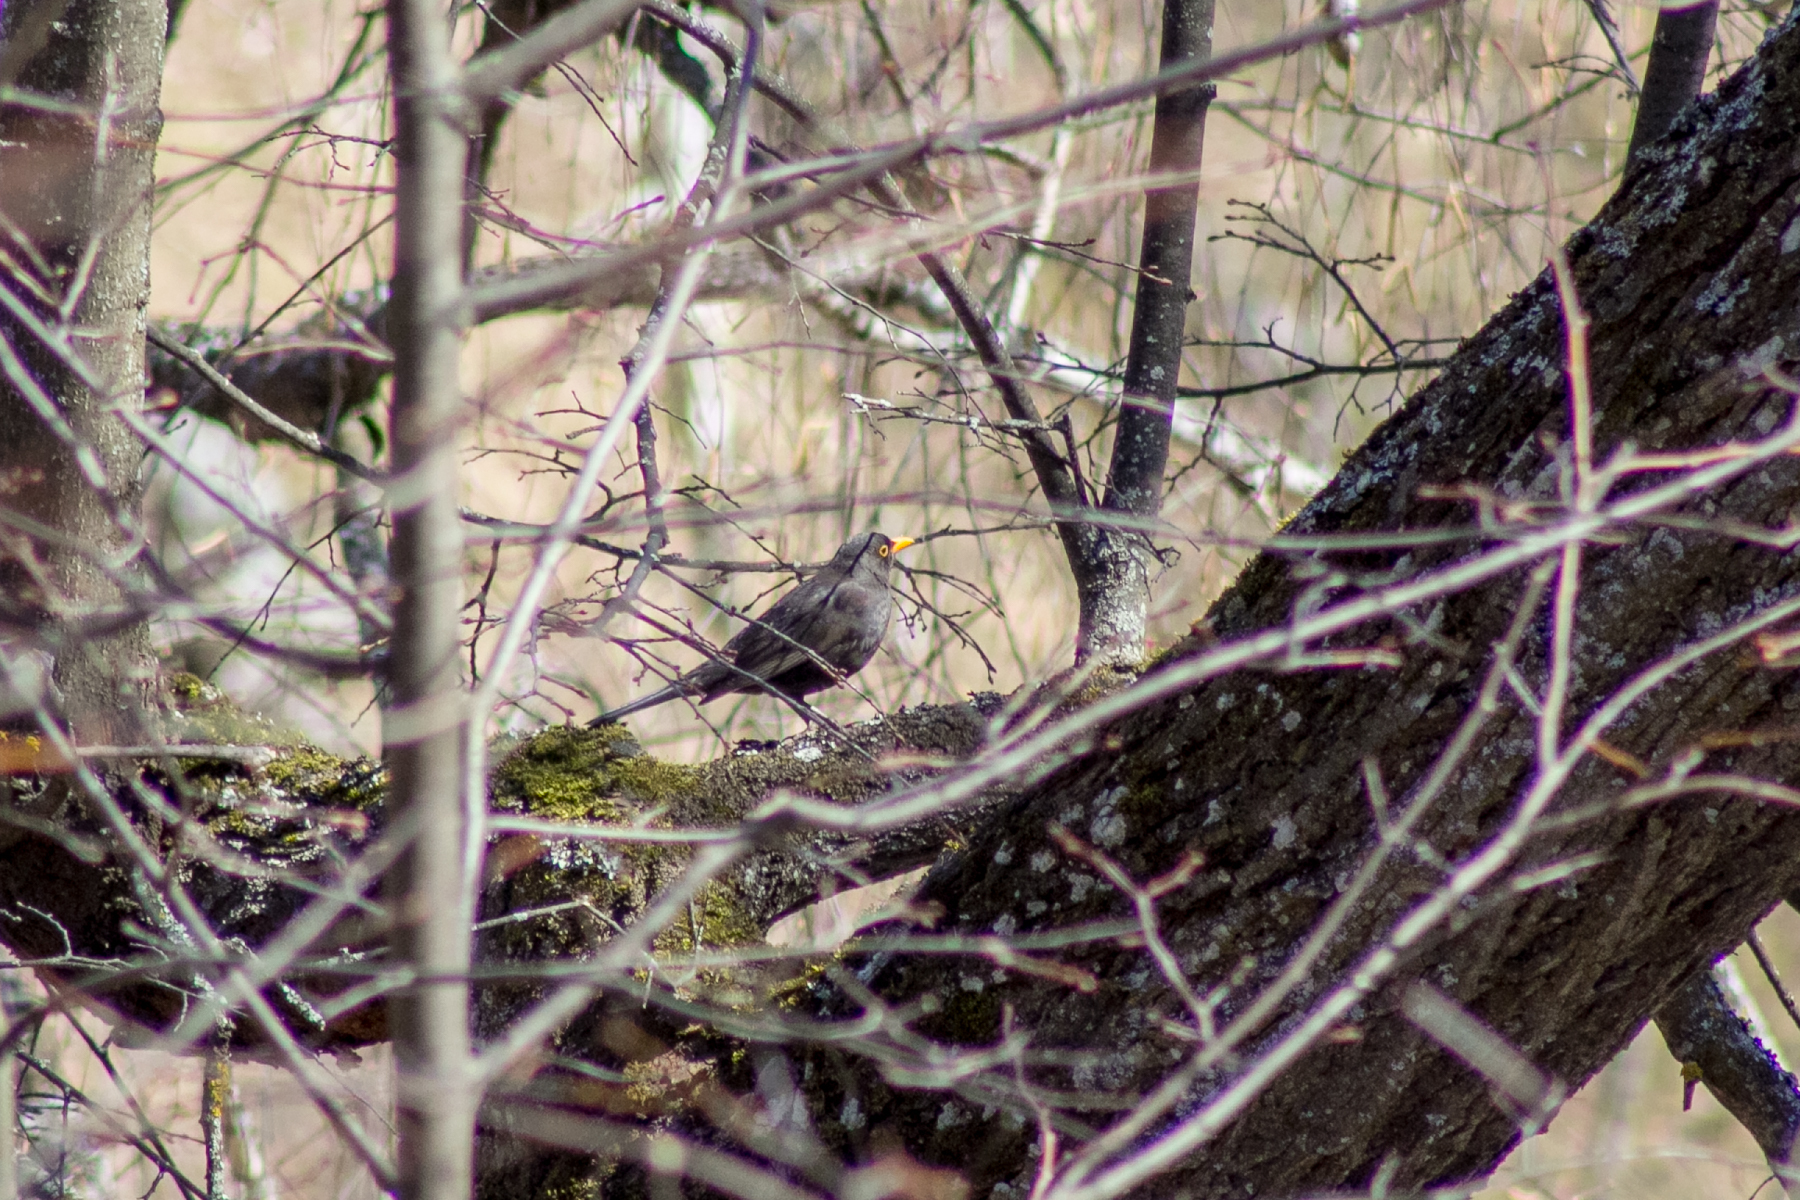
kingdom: Animalia
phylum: Chordata
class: Aves
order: Passeriformes
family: Turdidae
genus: Turdus
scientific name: Turdus merula
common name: Common blackbird
